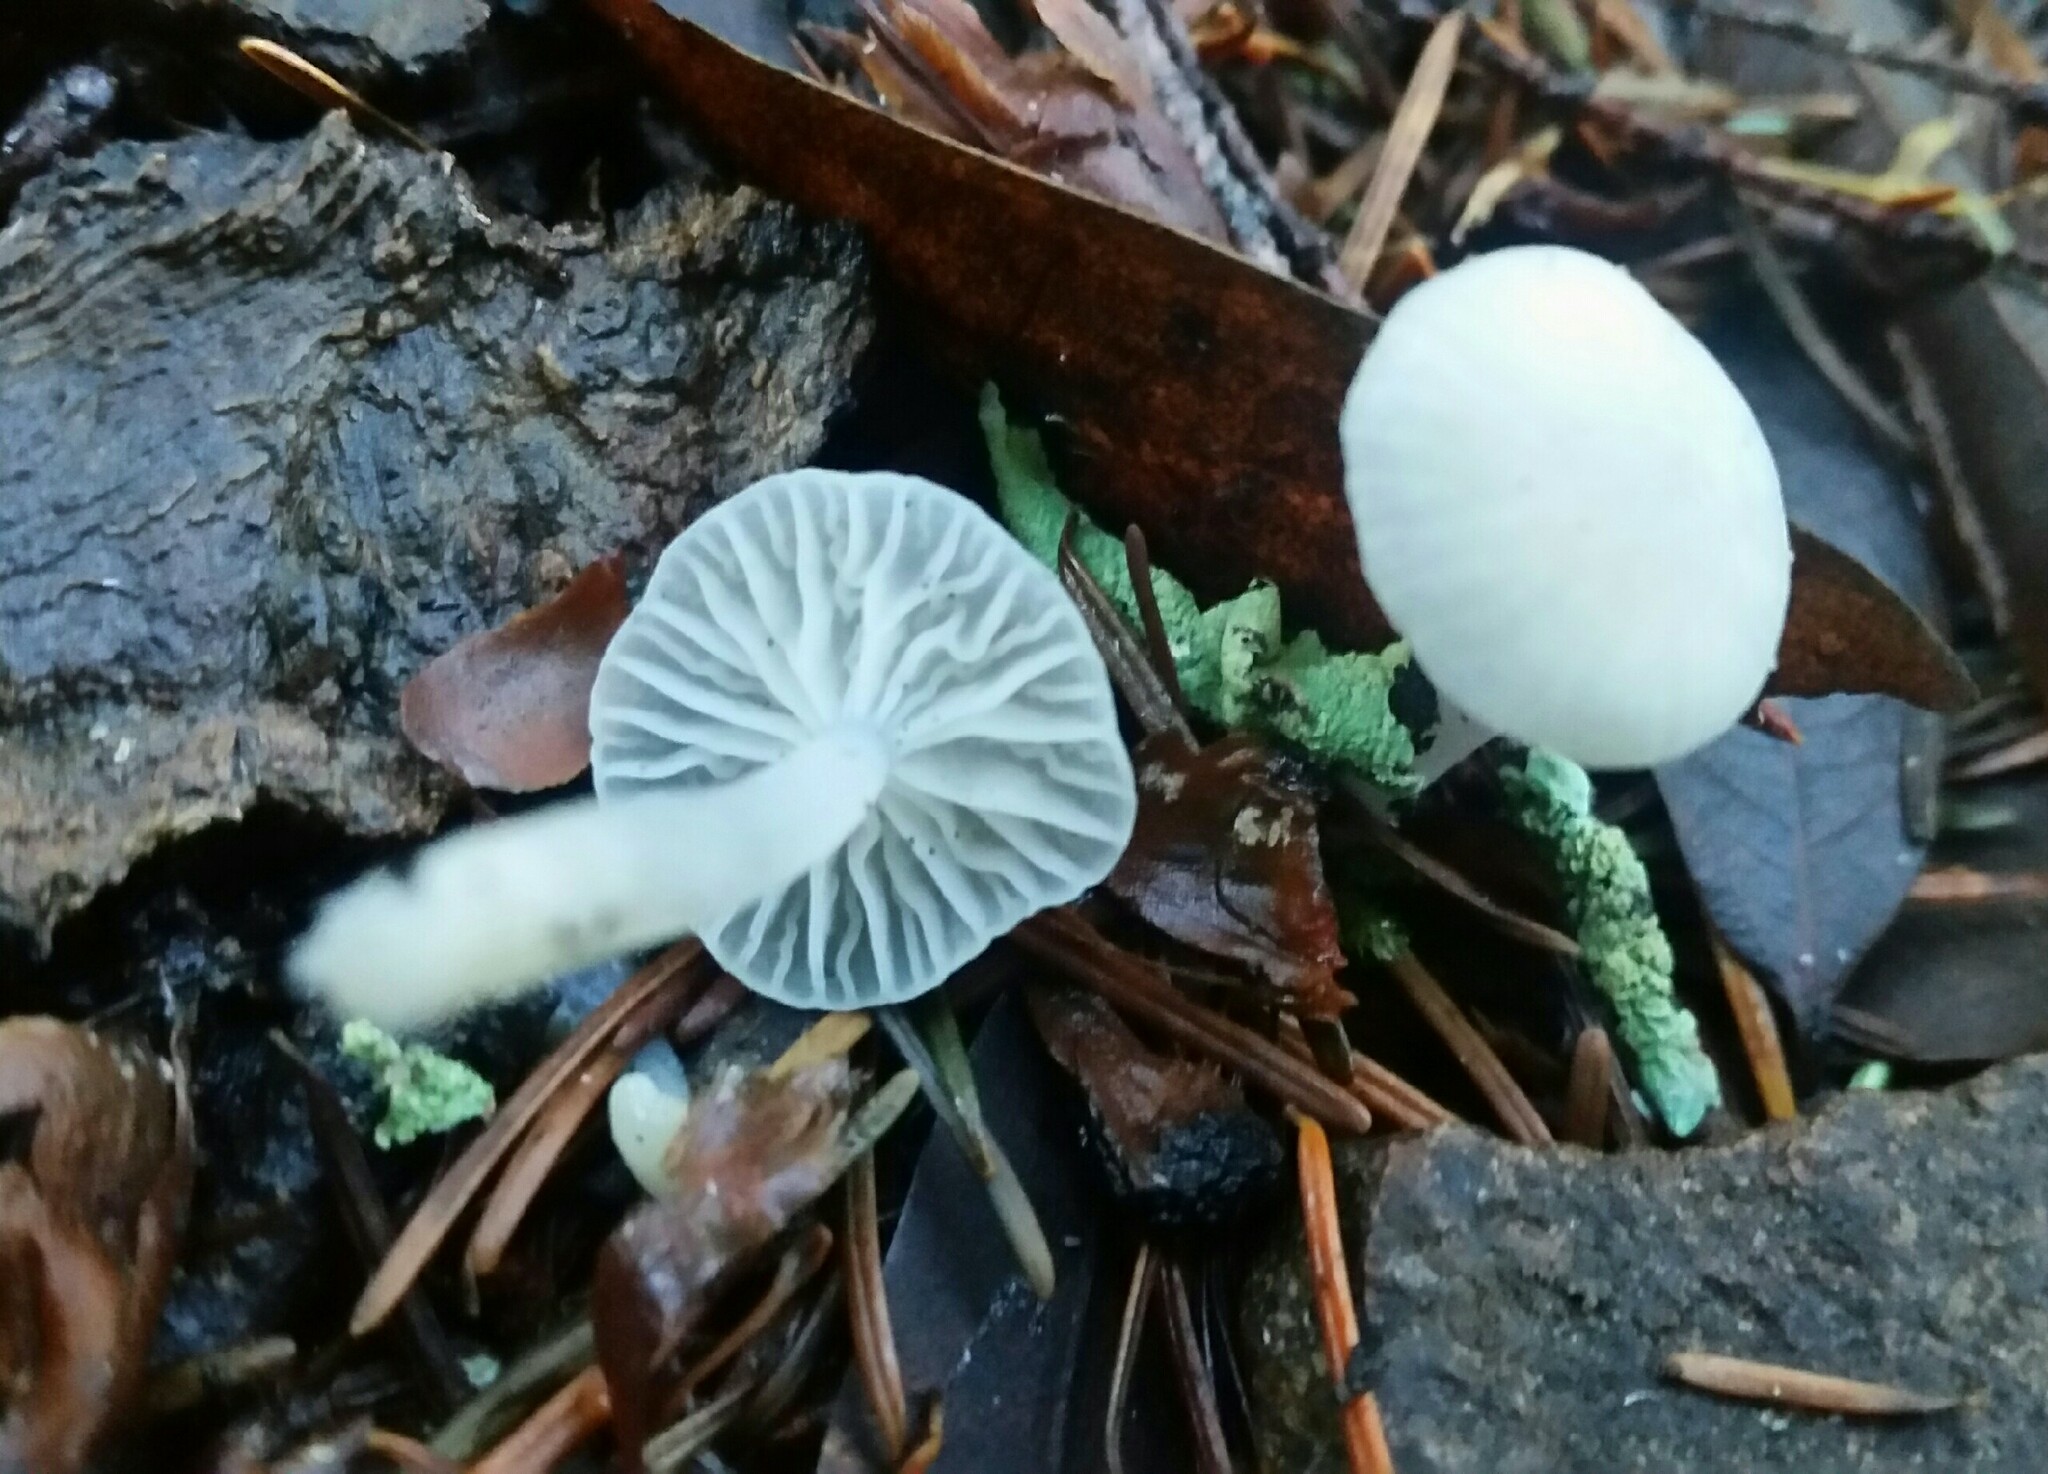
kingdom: Fungi
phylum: Basidiomycota
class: Agaricomycetes
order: Agaricales
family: Marasmiaceae
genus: Marasmius
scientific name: Marasmius calhouniae
